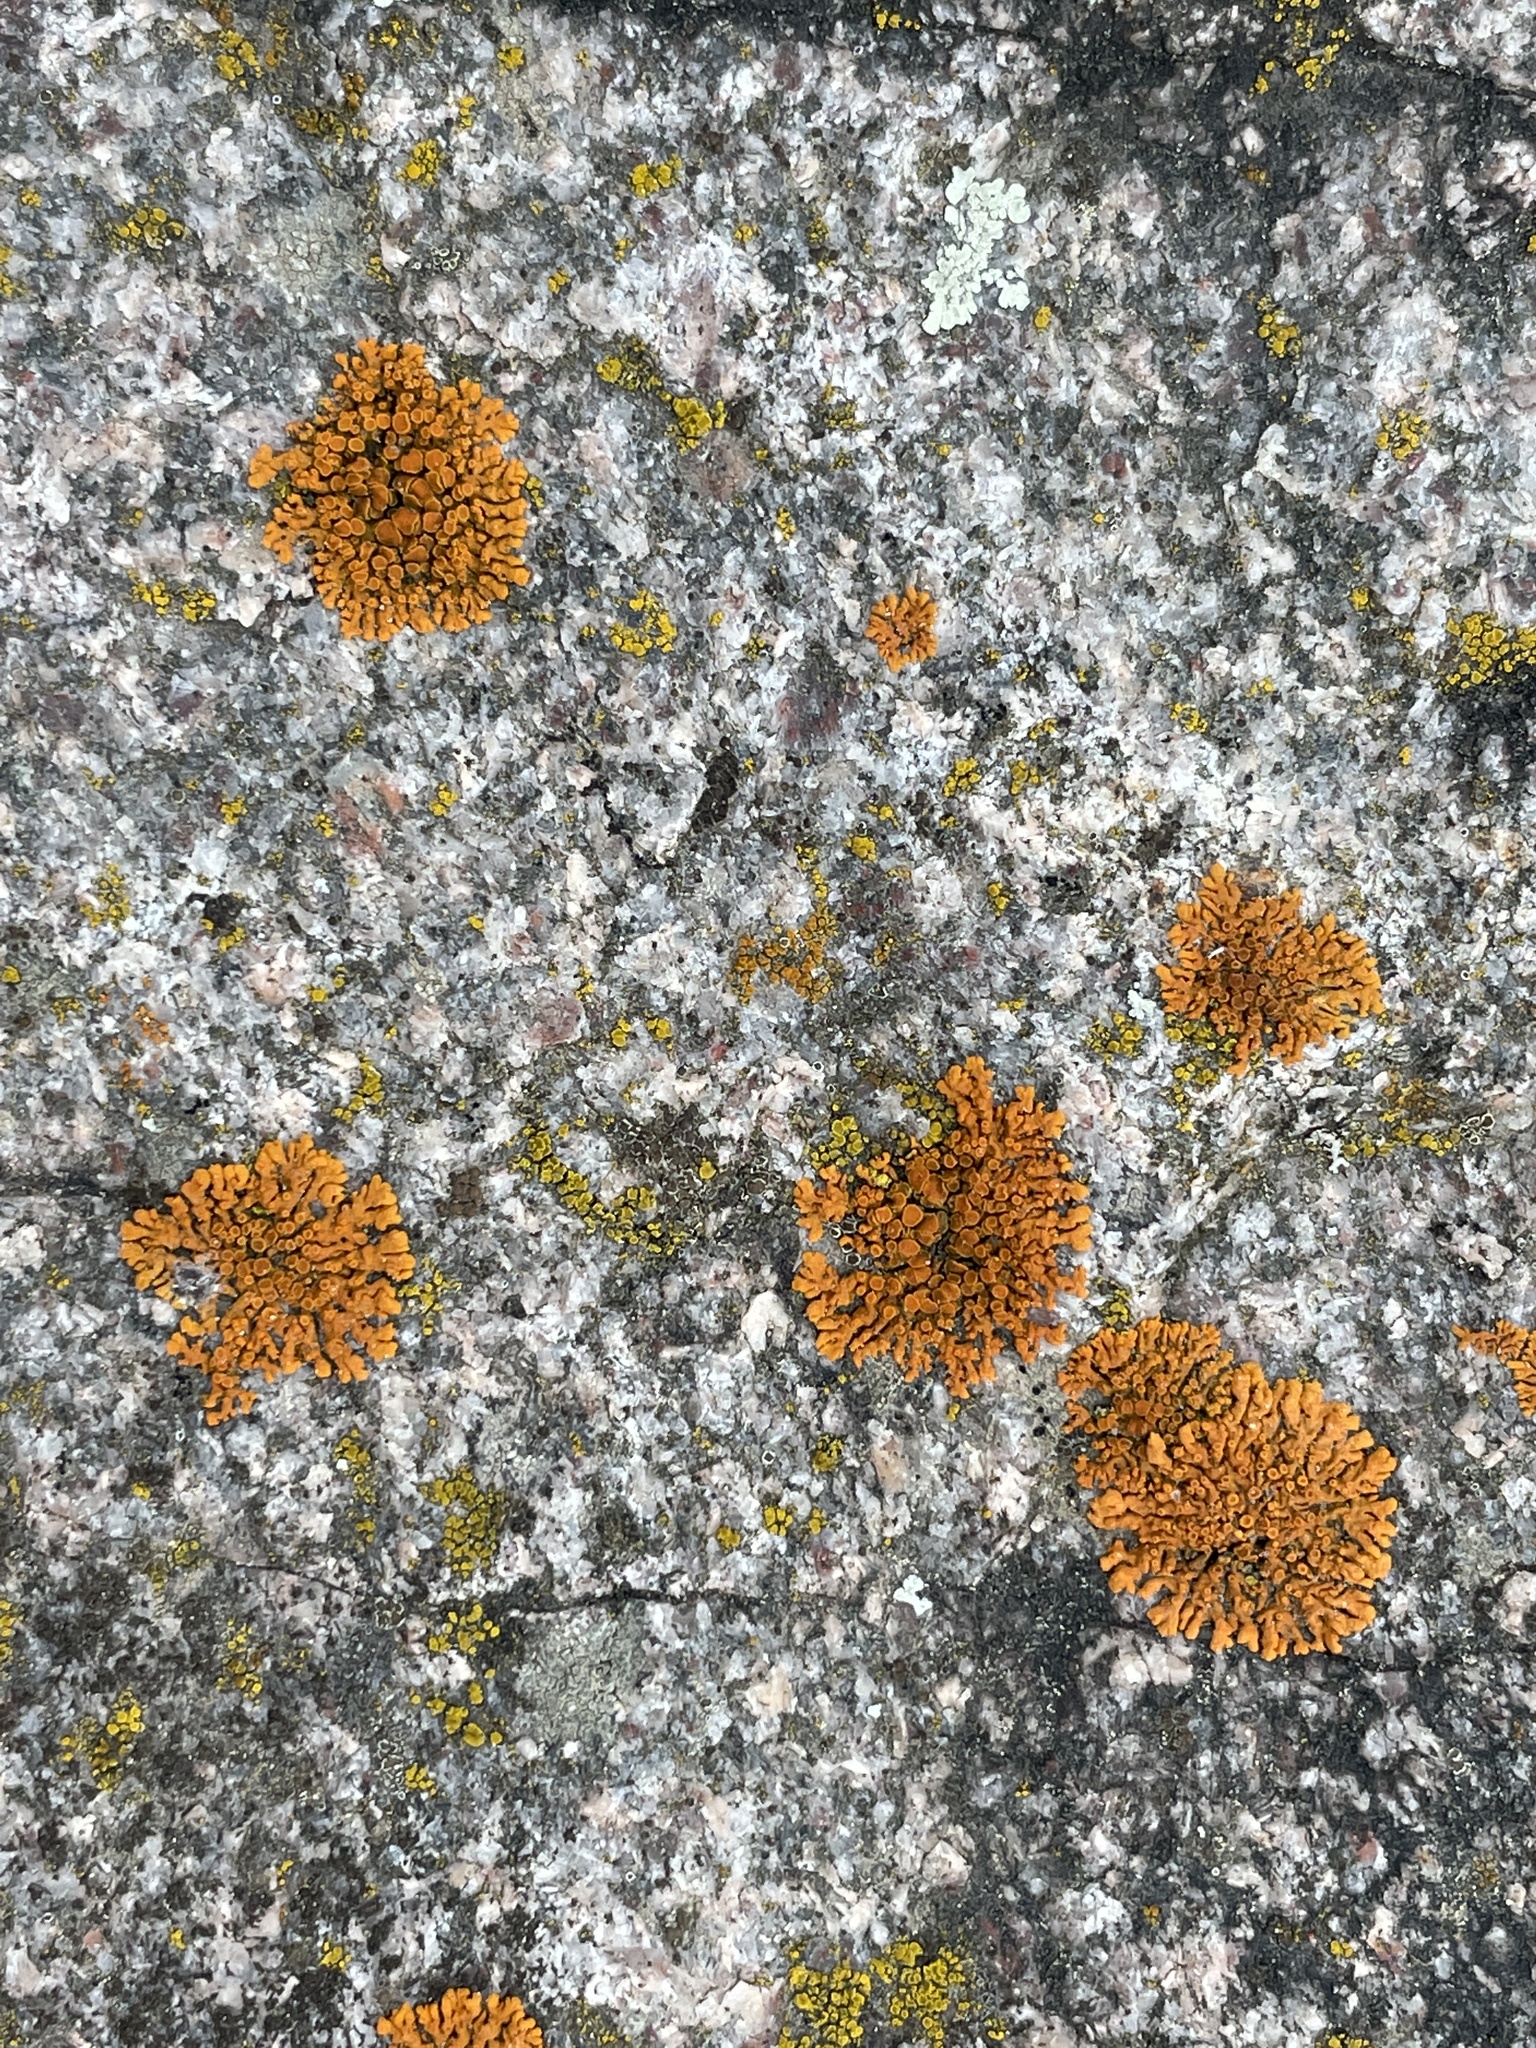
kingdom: Fungi
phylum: Ascomycota
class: Lecanoromycetes
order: Teloschistales
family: Teloschistaceae
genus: Xanthoria
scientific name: Xanthoria elegans
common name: Elegant sunburst lichen
